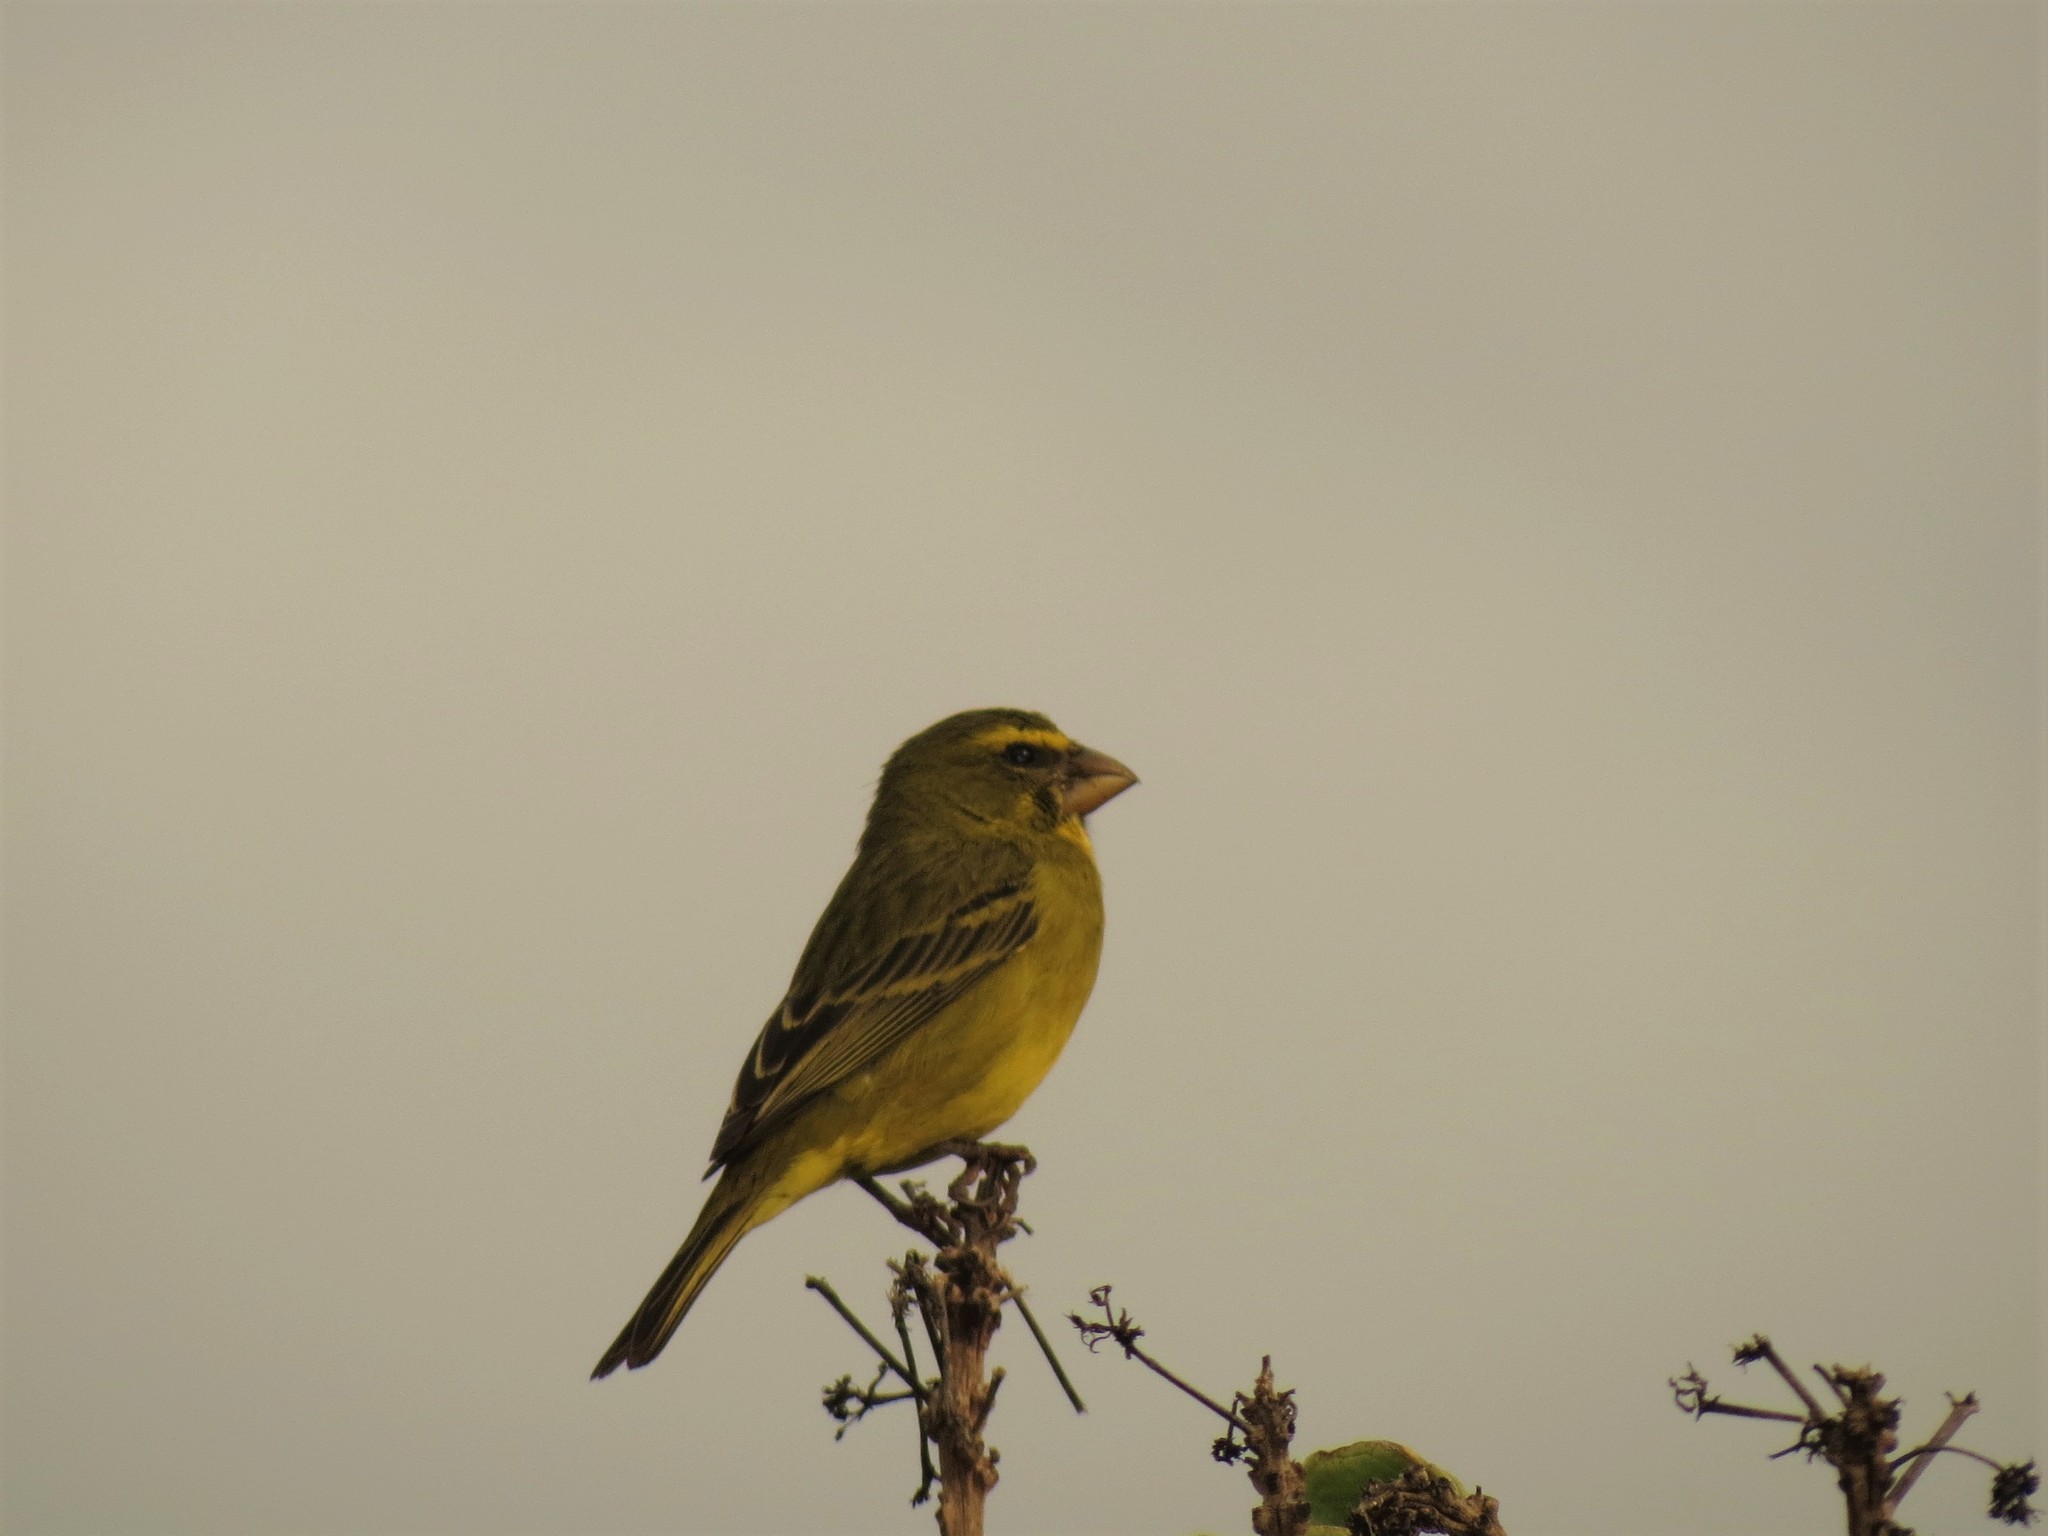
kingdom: Animalia
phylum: Chordata
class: Aves
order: Passeriformes
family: Fringillidae
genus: Crithagra
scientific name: Crithagra sulphurata
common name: Brimstone canary
